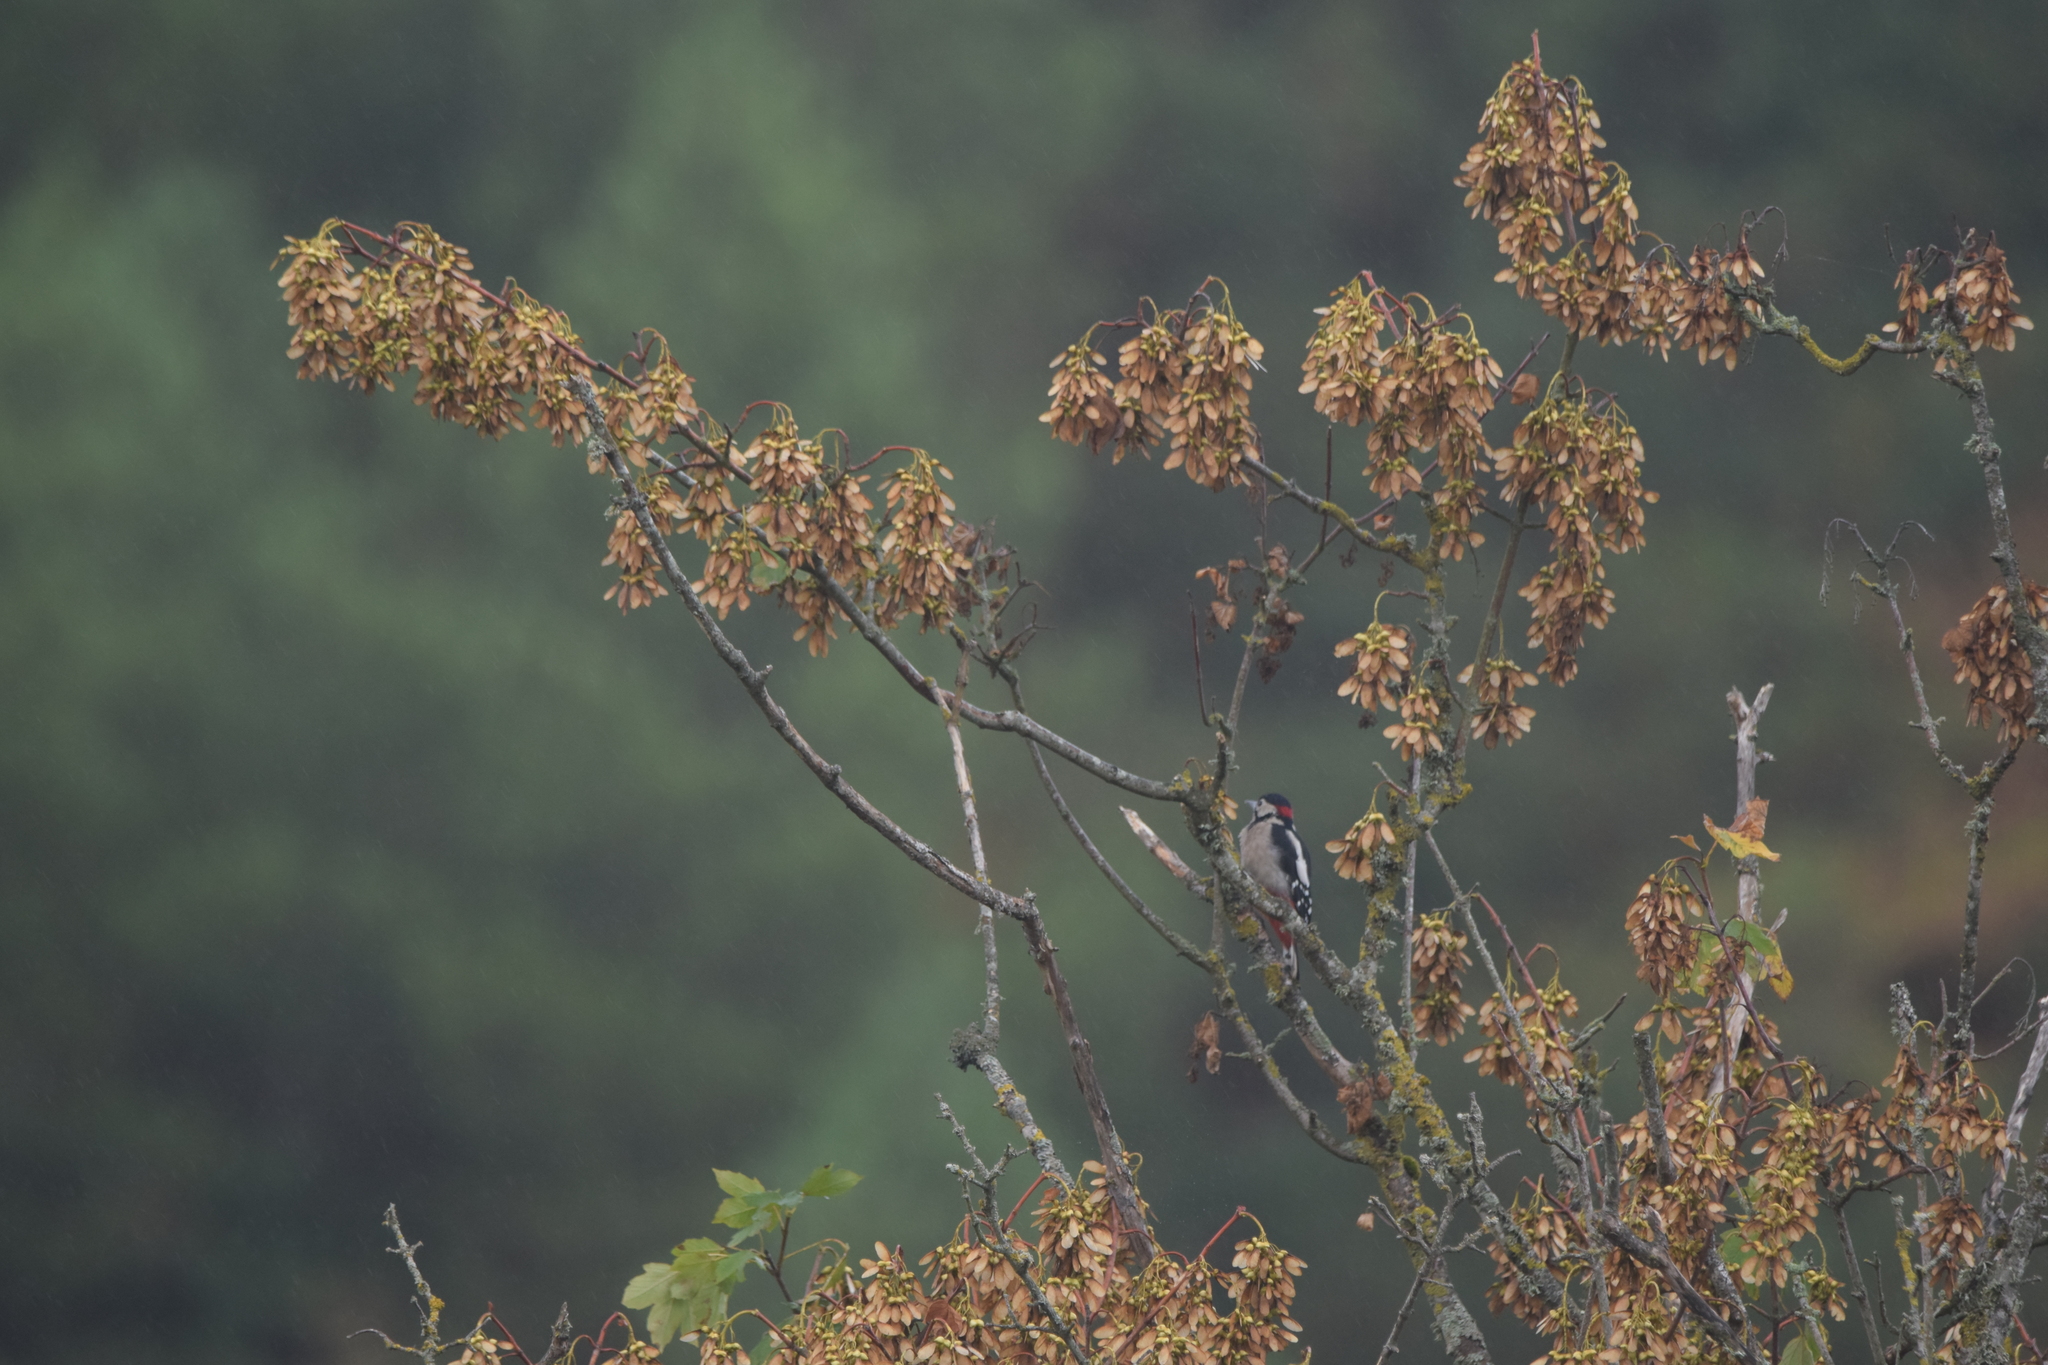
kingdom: Animalia
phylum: Chordata
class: Aves
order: Piciformes
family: Picidae
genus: Dendrocopos
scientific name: Dendrocopos major
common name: Great spotted woodpecker
